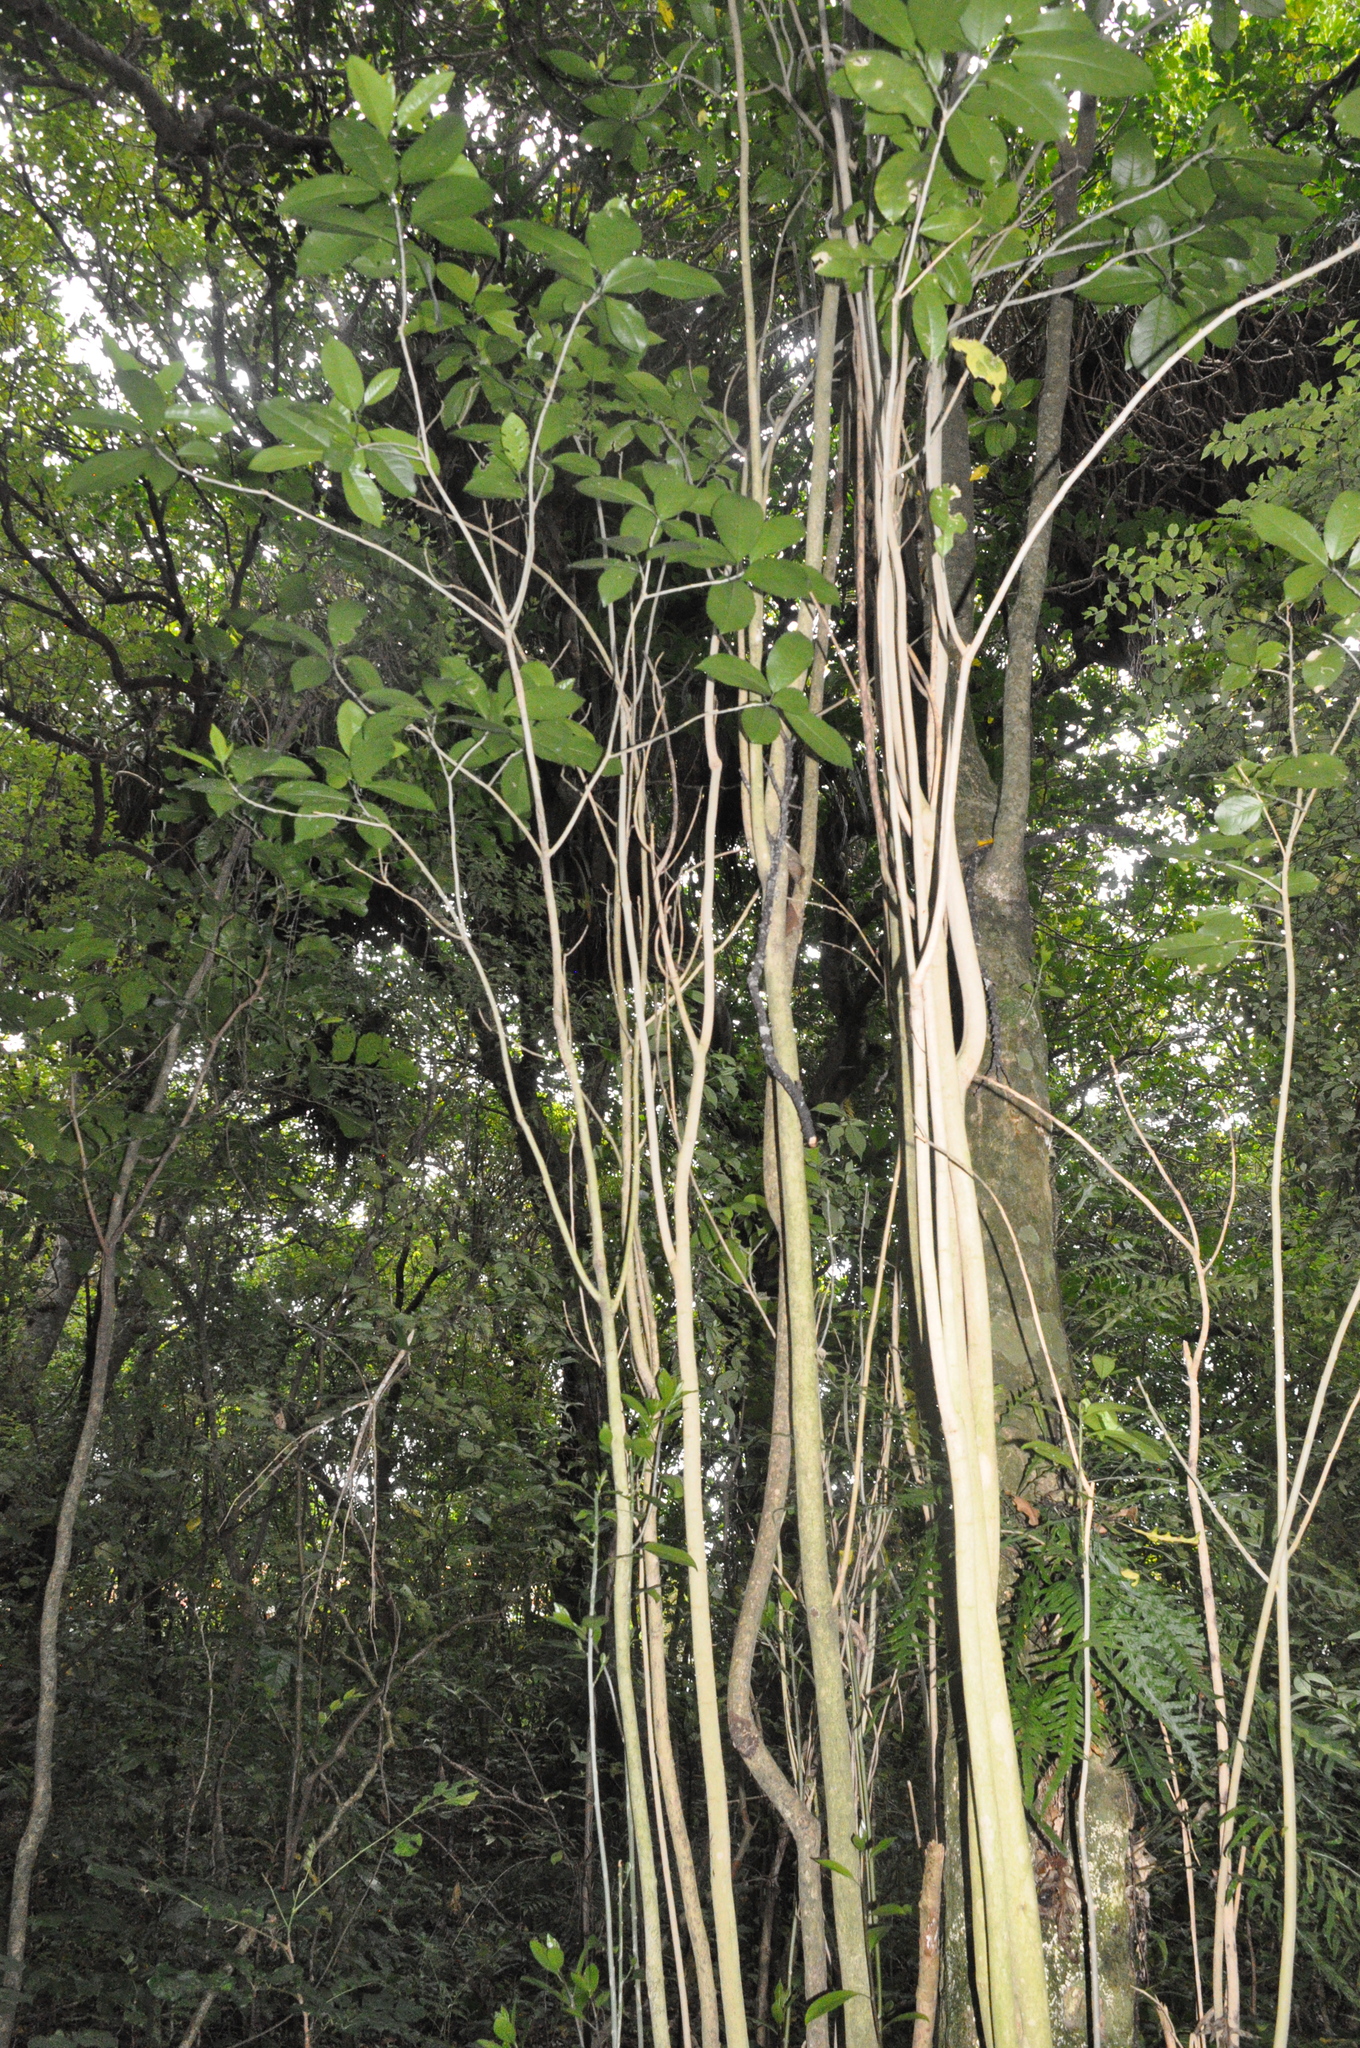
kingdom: Plantae
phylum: Tracheophyta
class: Magnoliopsida
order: Malpighiales
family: Violaceae
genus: Melicytus
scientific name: Melicytus ramiflorus
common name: Mahoe
